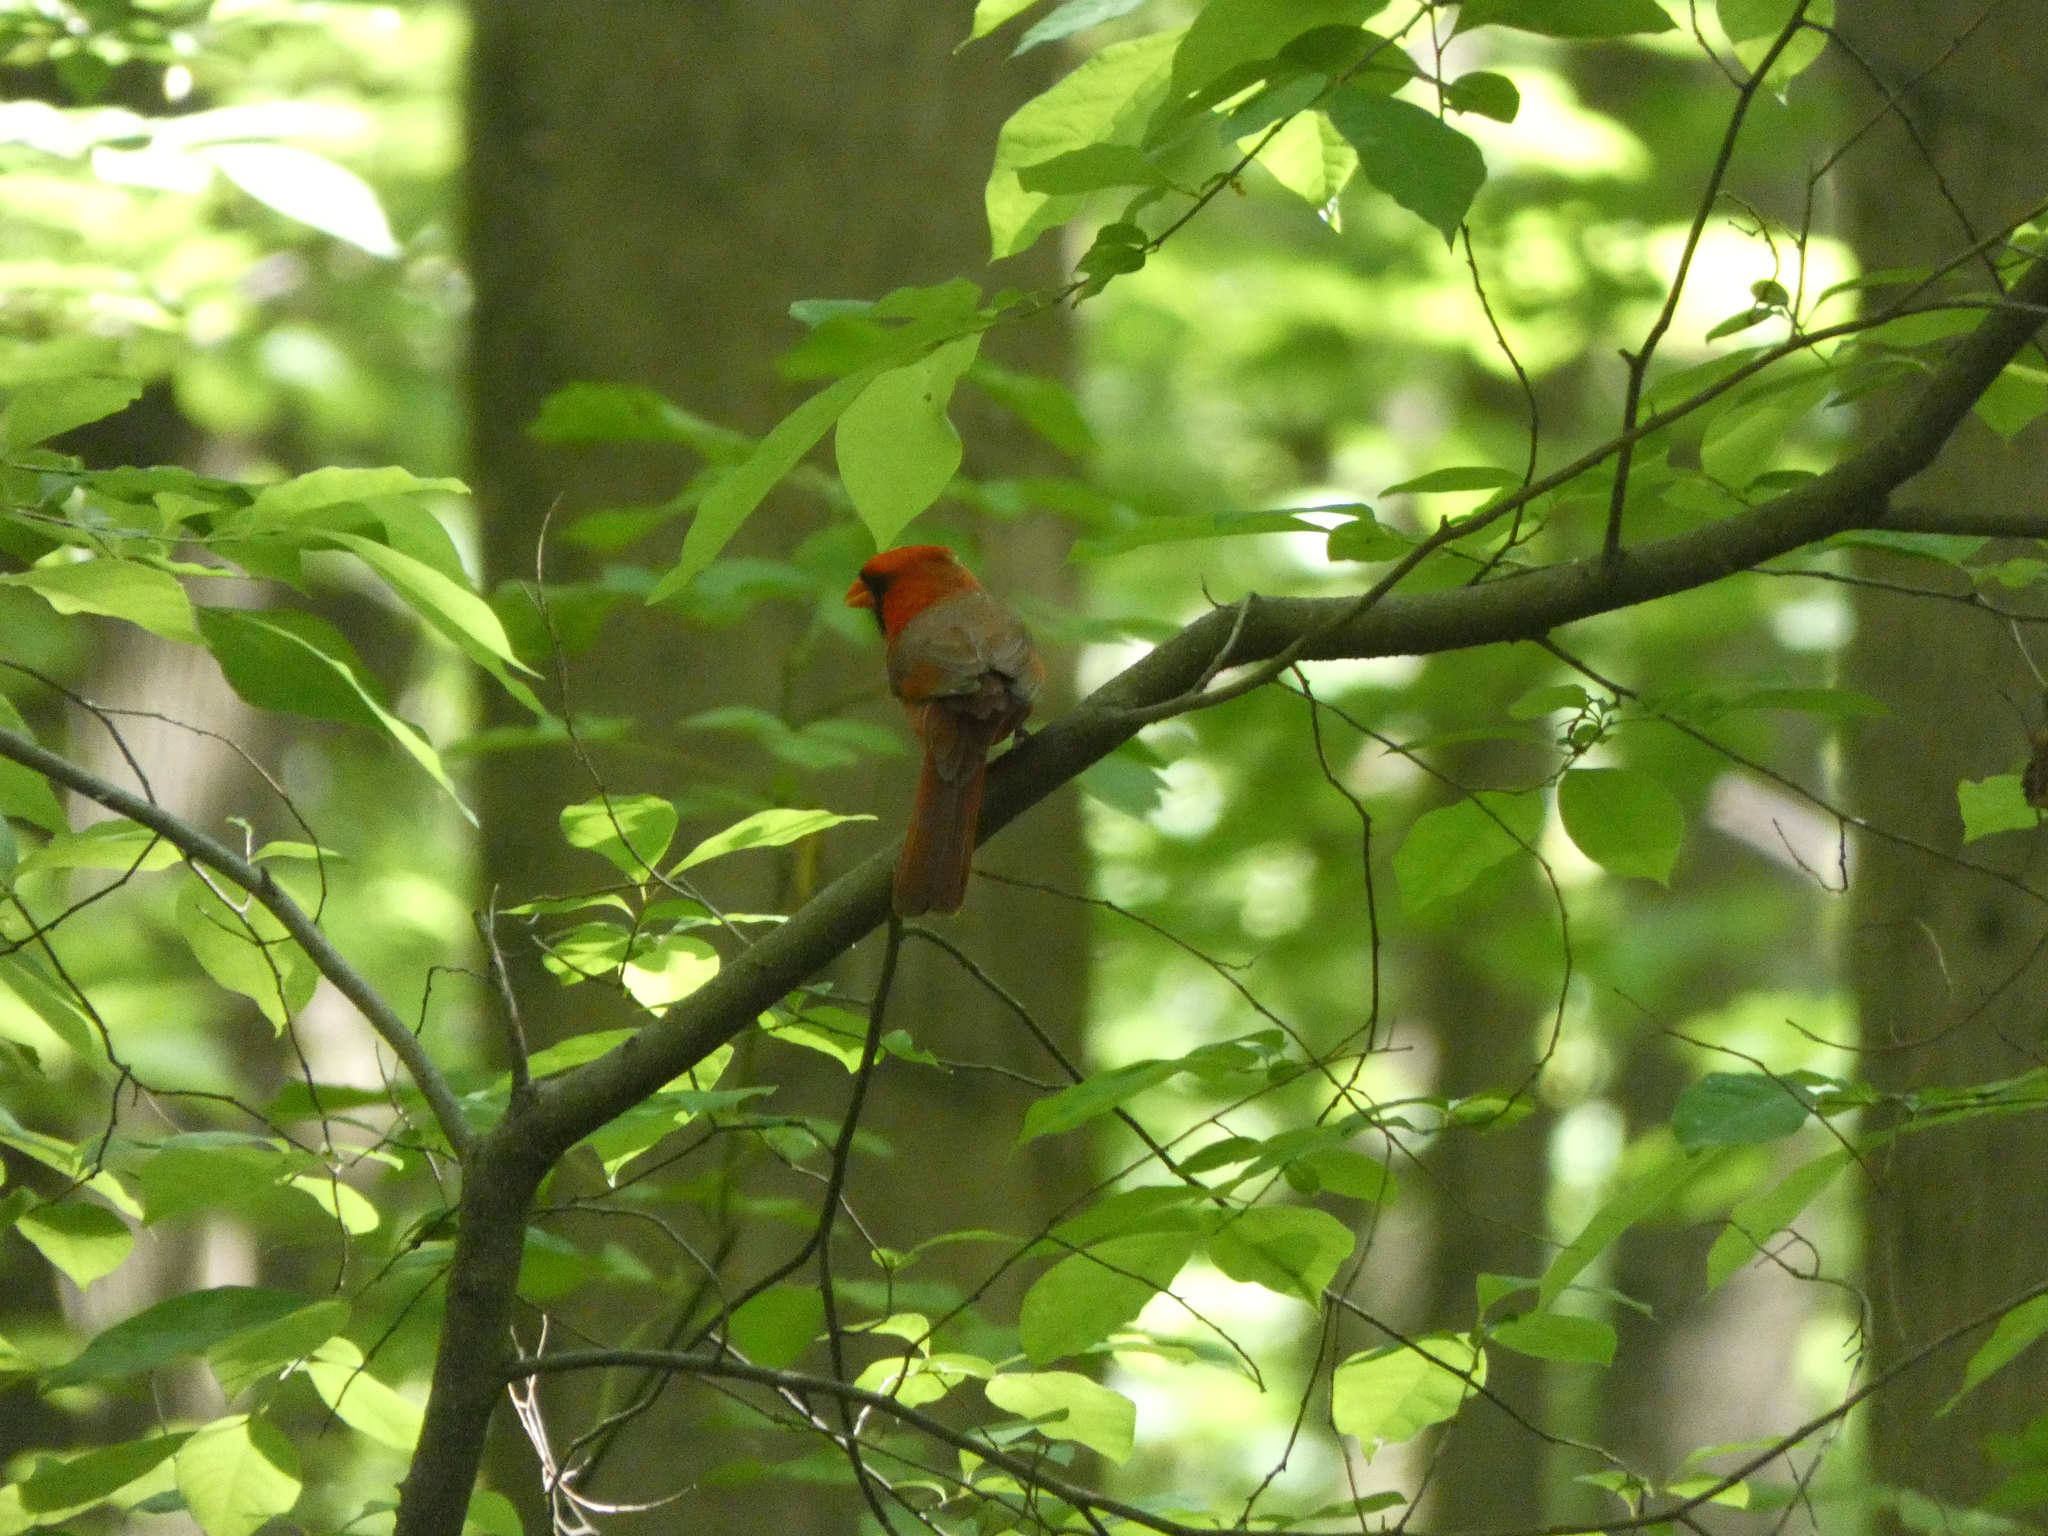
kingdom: Animalia
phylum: Chordata
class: Aves
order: Passeriformes
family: Cardinalidae
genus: Cardinalis
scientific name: Cardinalis cardinalis
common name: Northern cardinal
